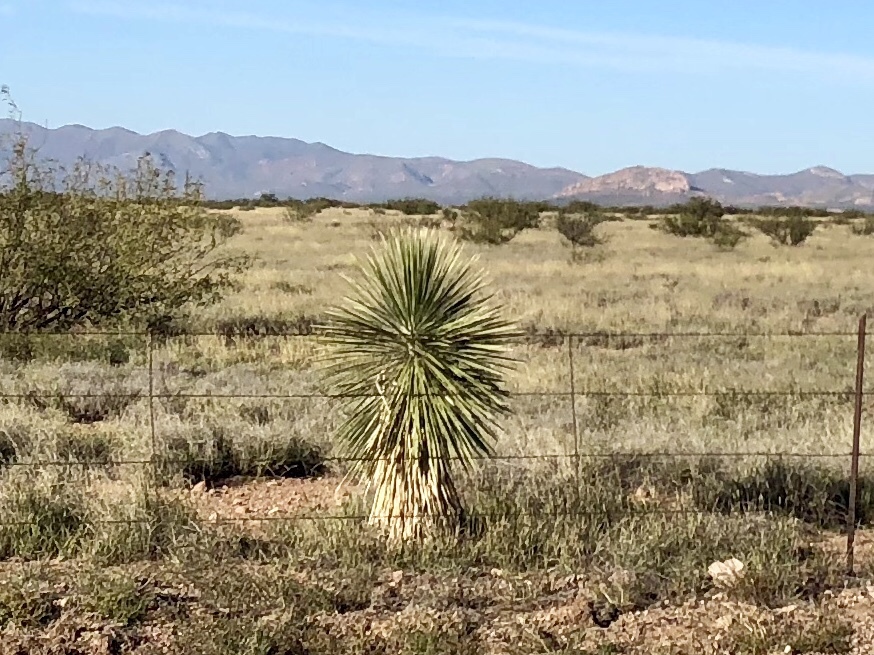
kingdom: Plantae
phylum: Tracheophyta
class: Liliopsida
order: Asparagales
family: Asparagaceae
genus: Yucca
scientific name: Yucca elata
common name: Palmella
